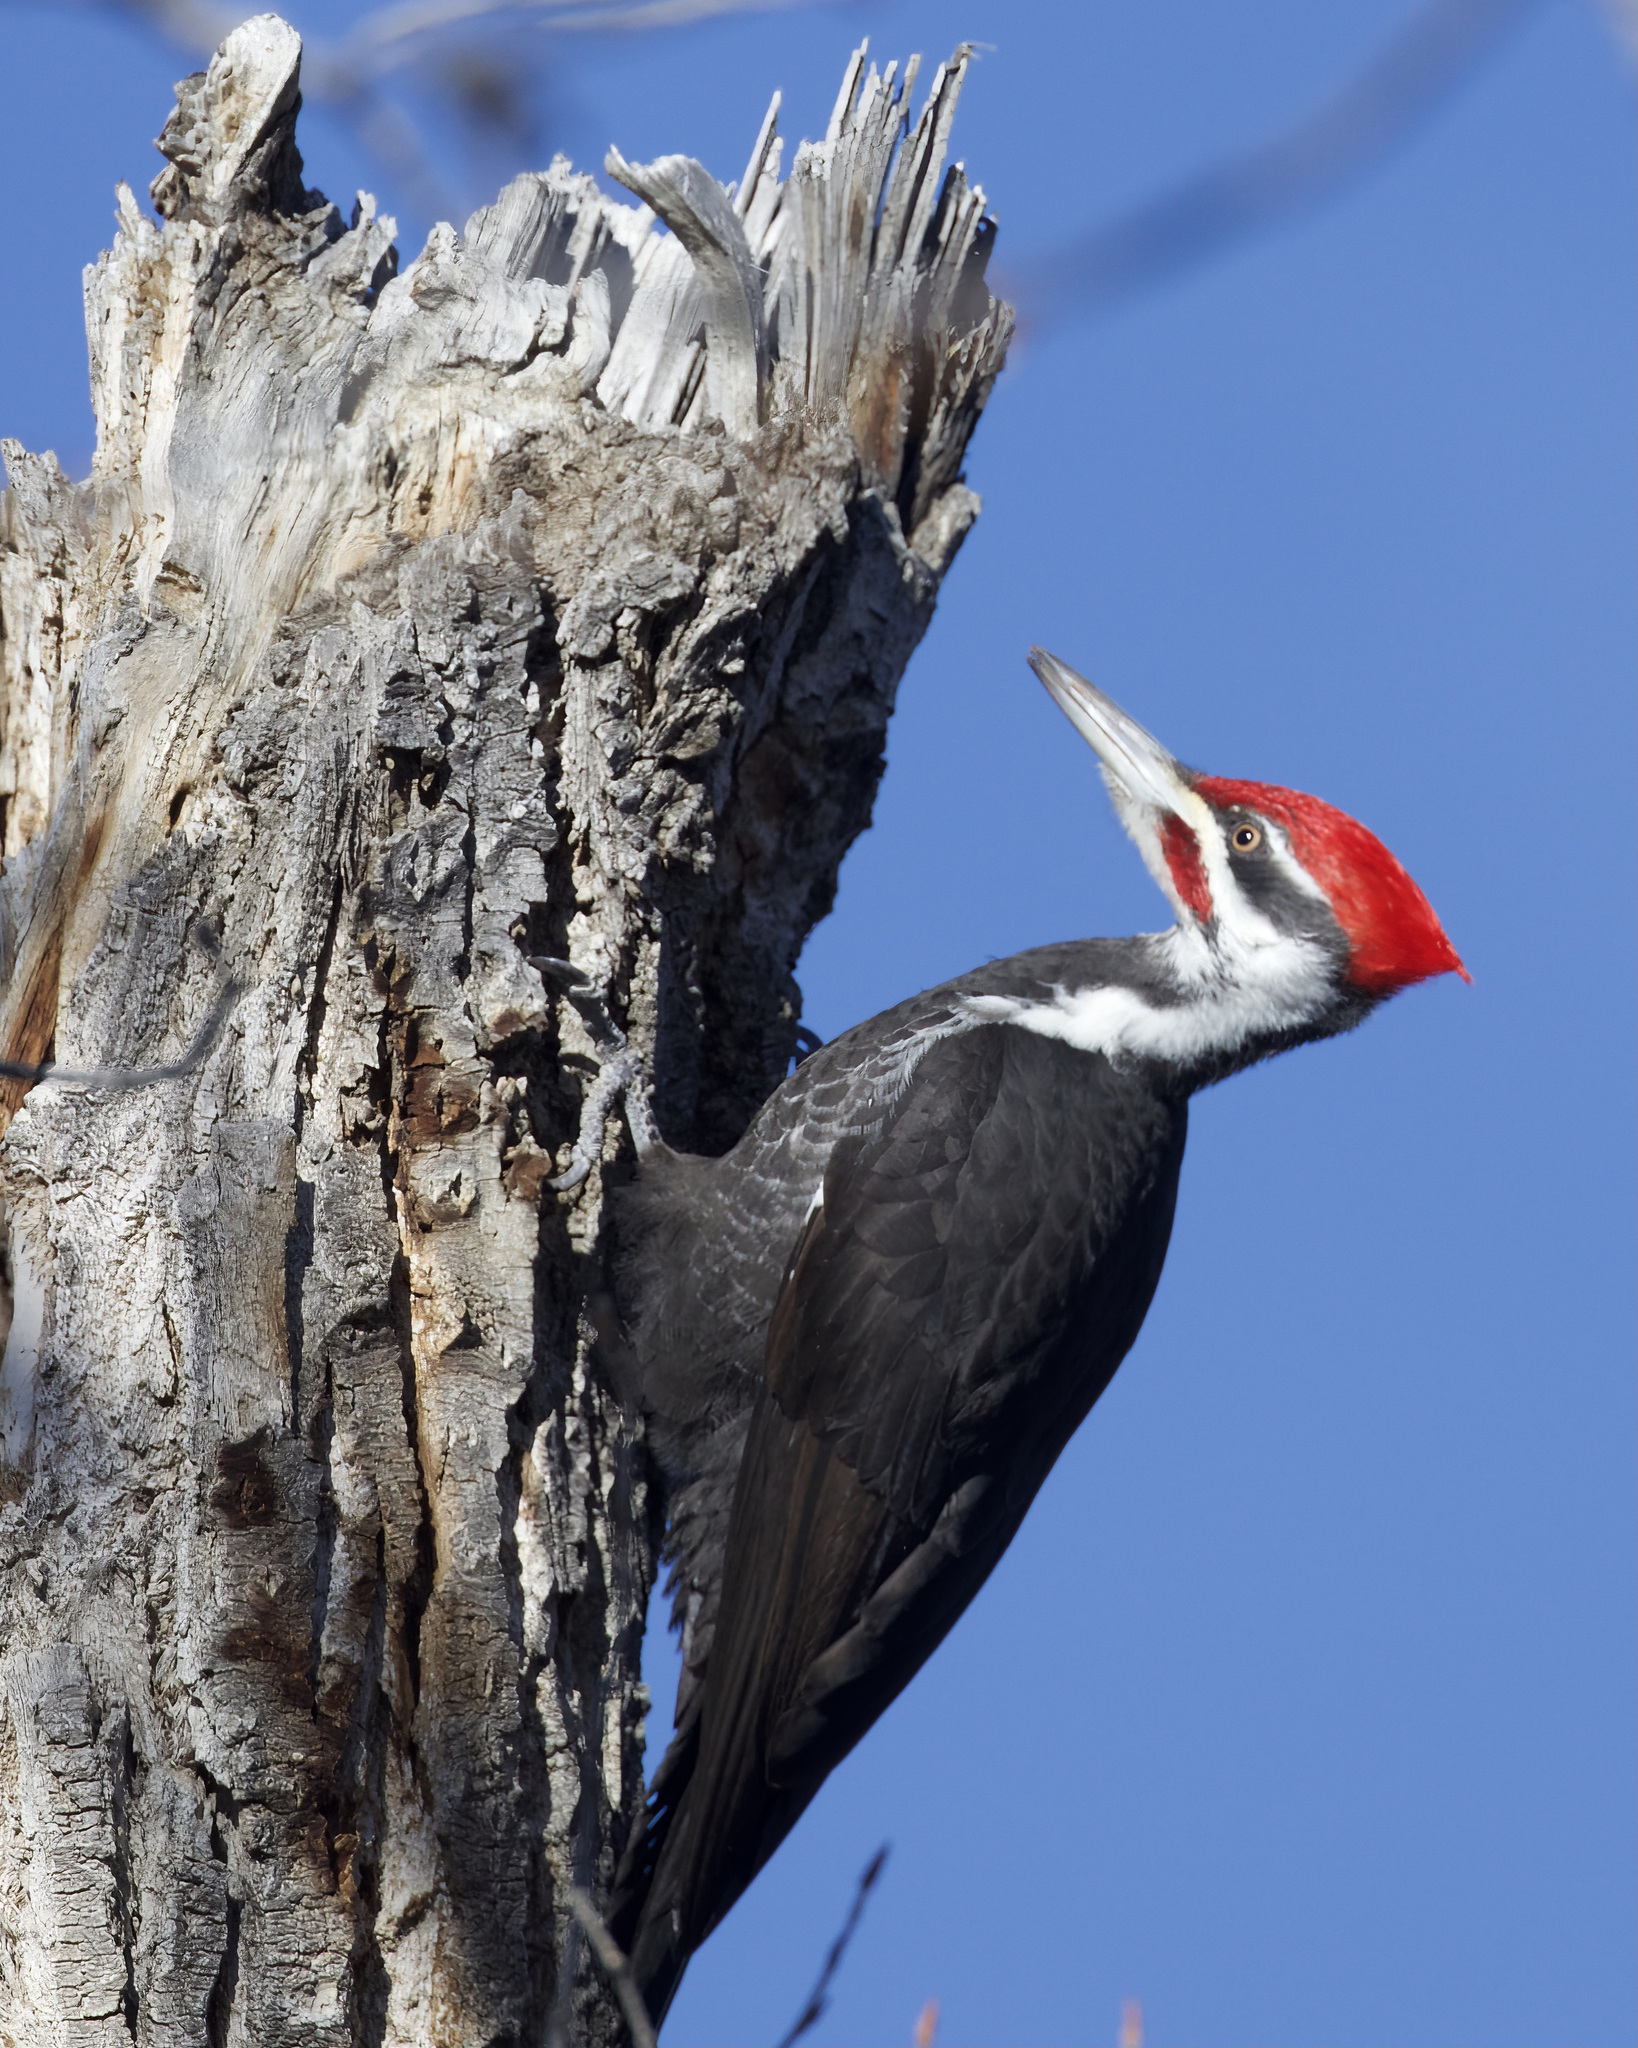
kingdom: Animalia
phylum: Chordata
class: Aves
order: Piciformes
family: Picidae
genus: Dryocopus
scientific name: Dryocopus pileatus
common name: Pileated woodpecker
